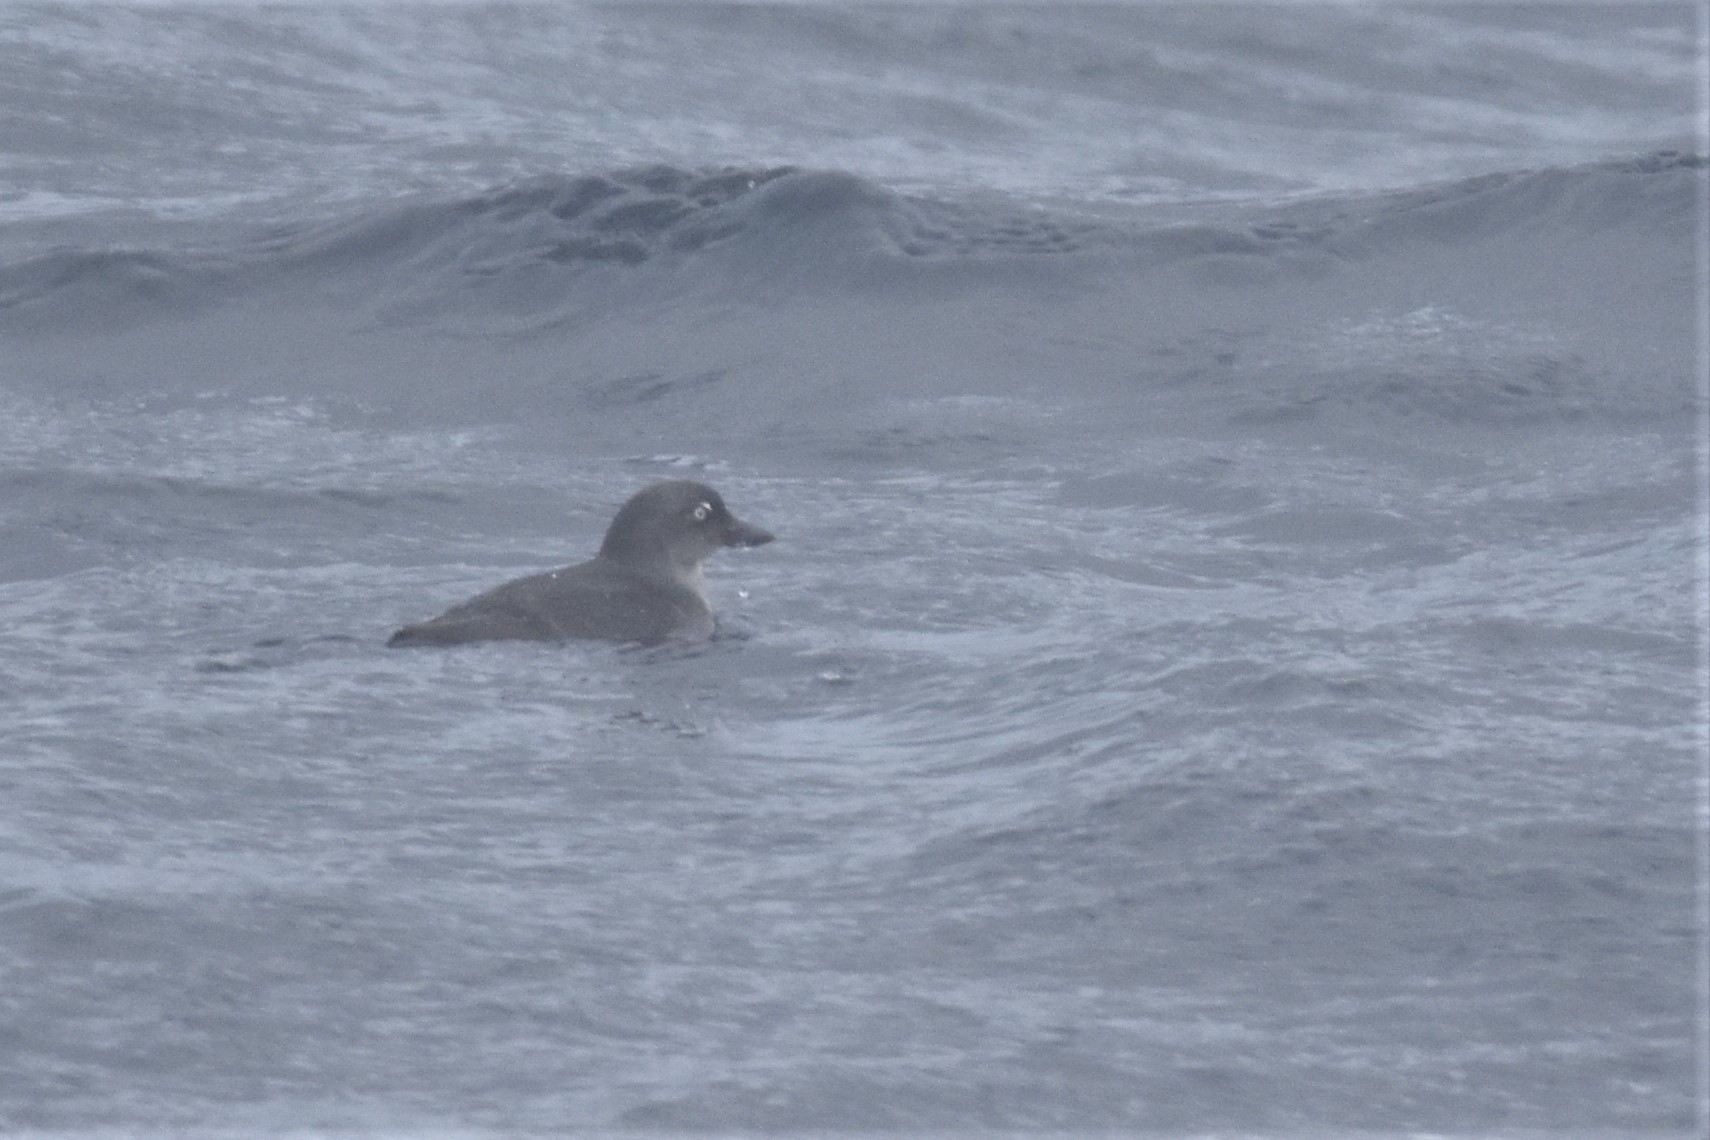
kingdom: Animalia
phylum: Chordata
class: Aves
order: Charadriiformes
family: Alcidae
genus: Ptychoramphus
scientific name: Ptychoramphus aleuticus
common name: Cassin's auklet
